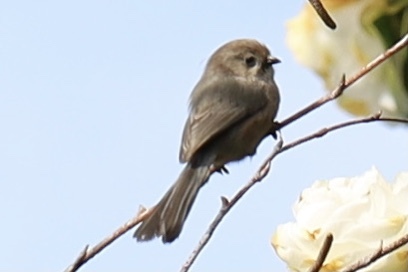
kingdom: Animalia
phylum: Chordata
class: Aves
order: Passeriformes
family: Aegithalidae
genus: Psaltriparus
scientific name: Psaltriparus minimus
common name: American bushtit
